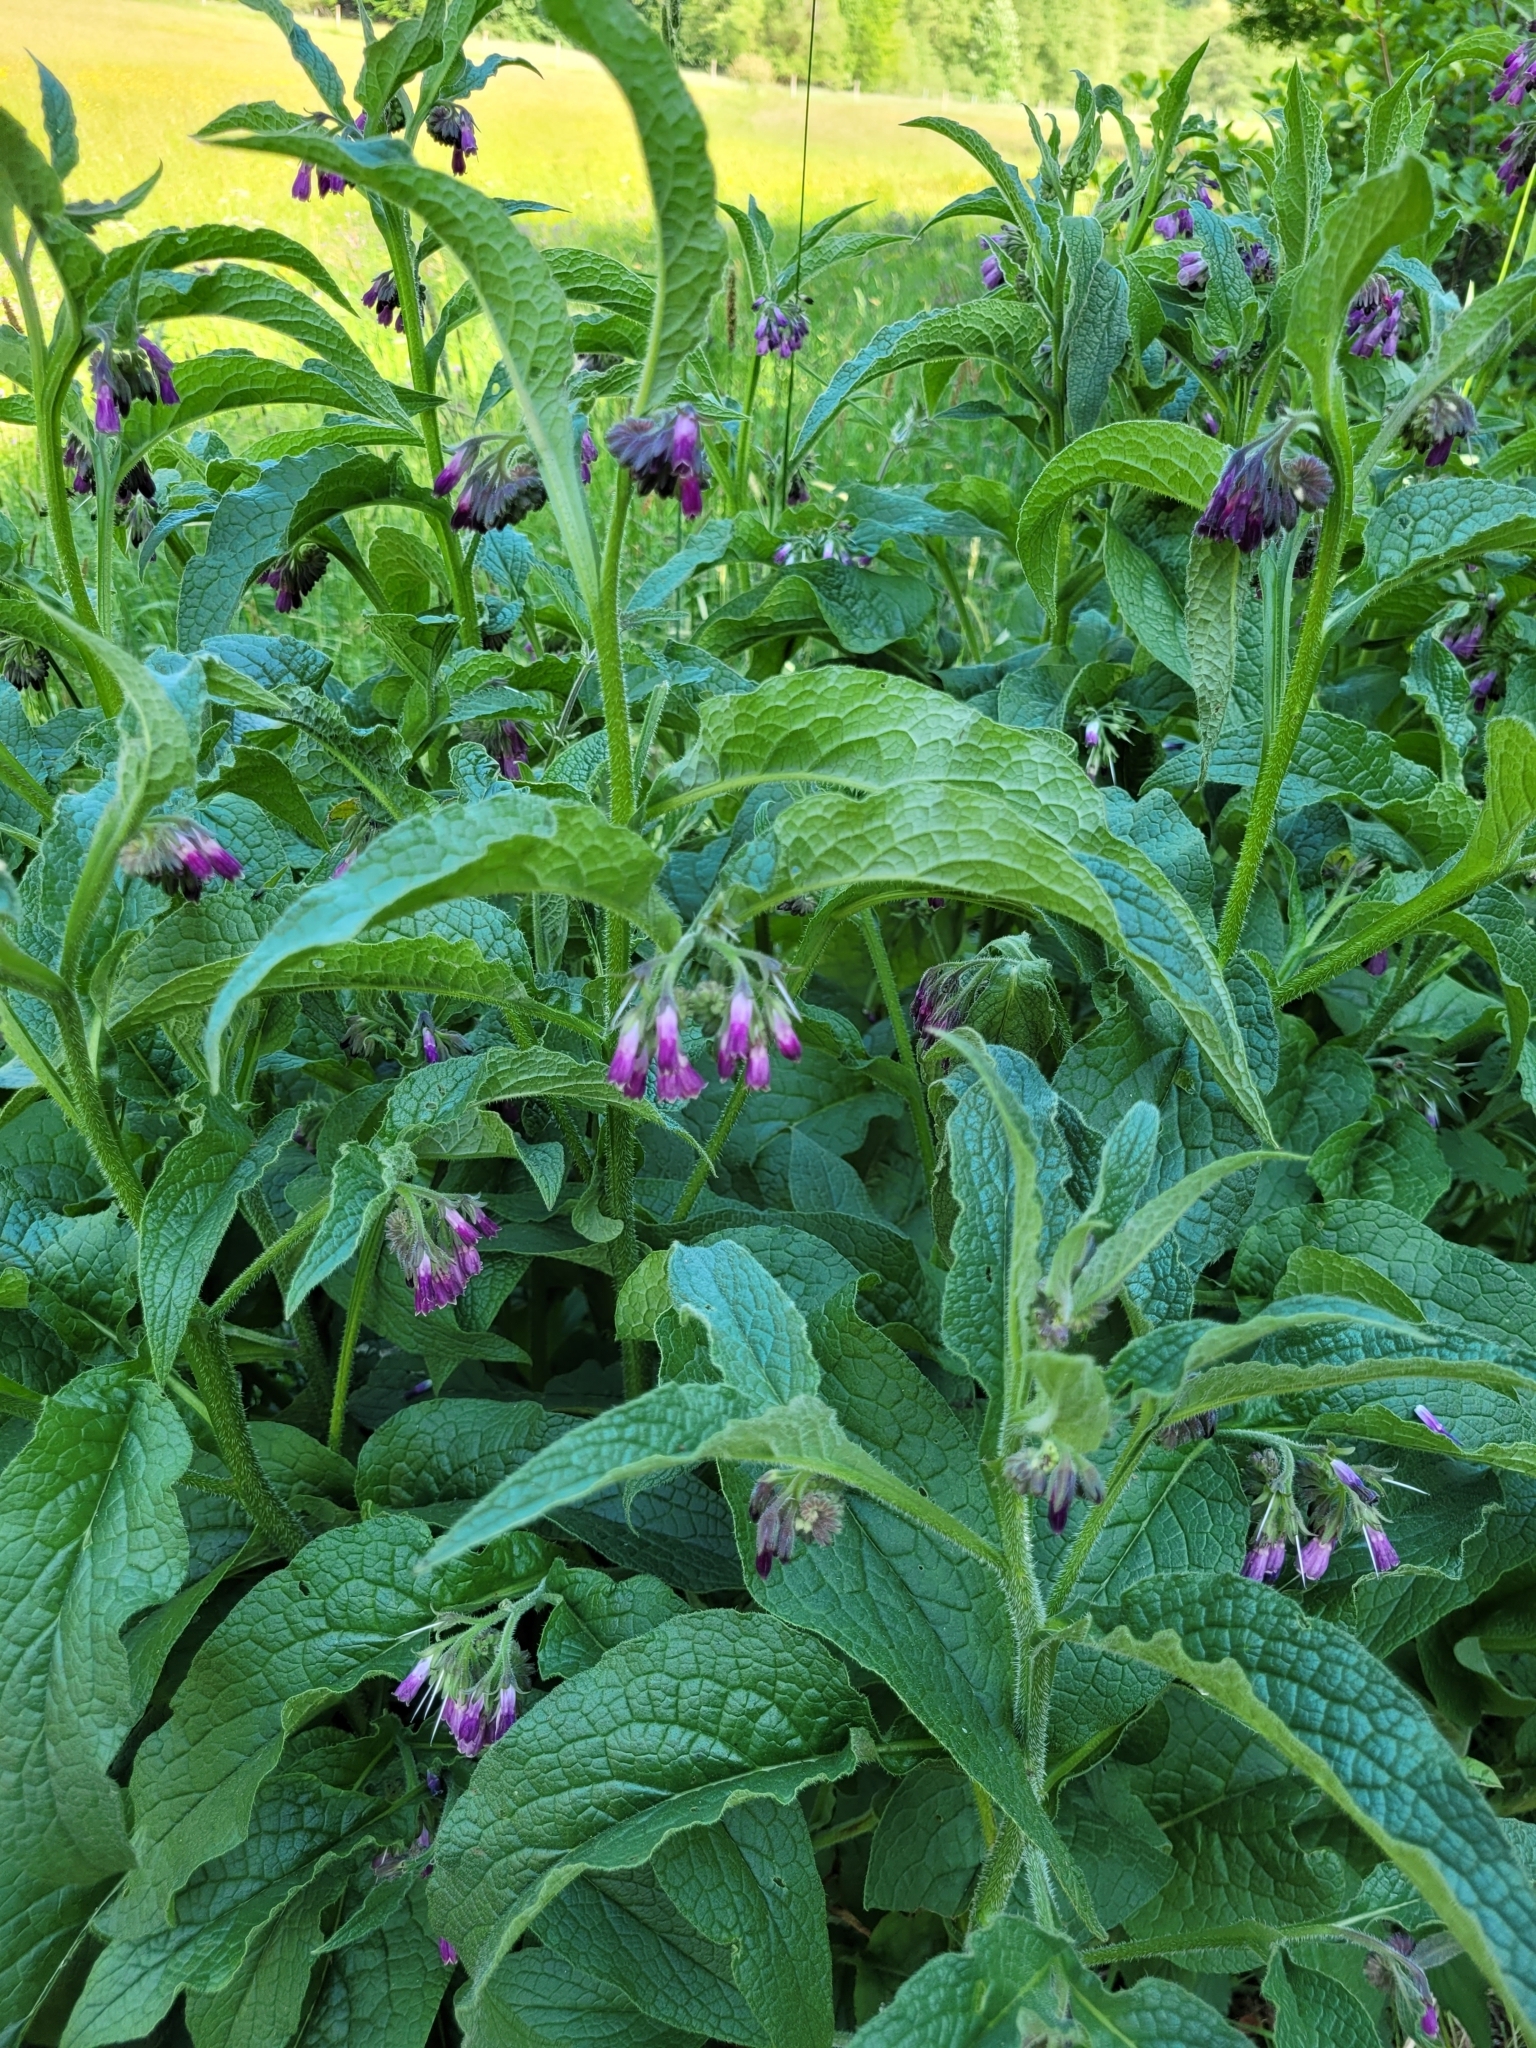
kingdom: Plantae
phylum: Tracheophyta
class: Magnoliopsida
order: Boraginales
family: Boraginaceae
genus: Symphytum
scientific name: Symphytum officinale
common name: Common comfrey
